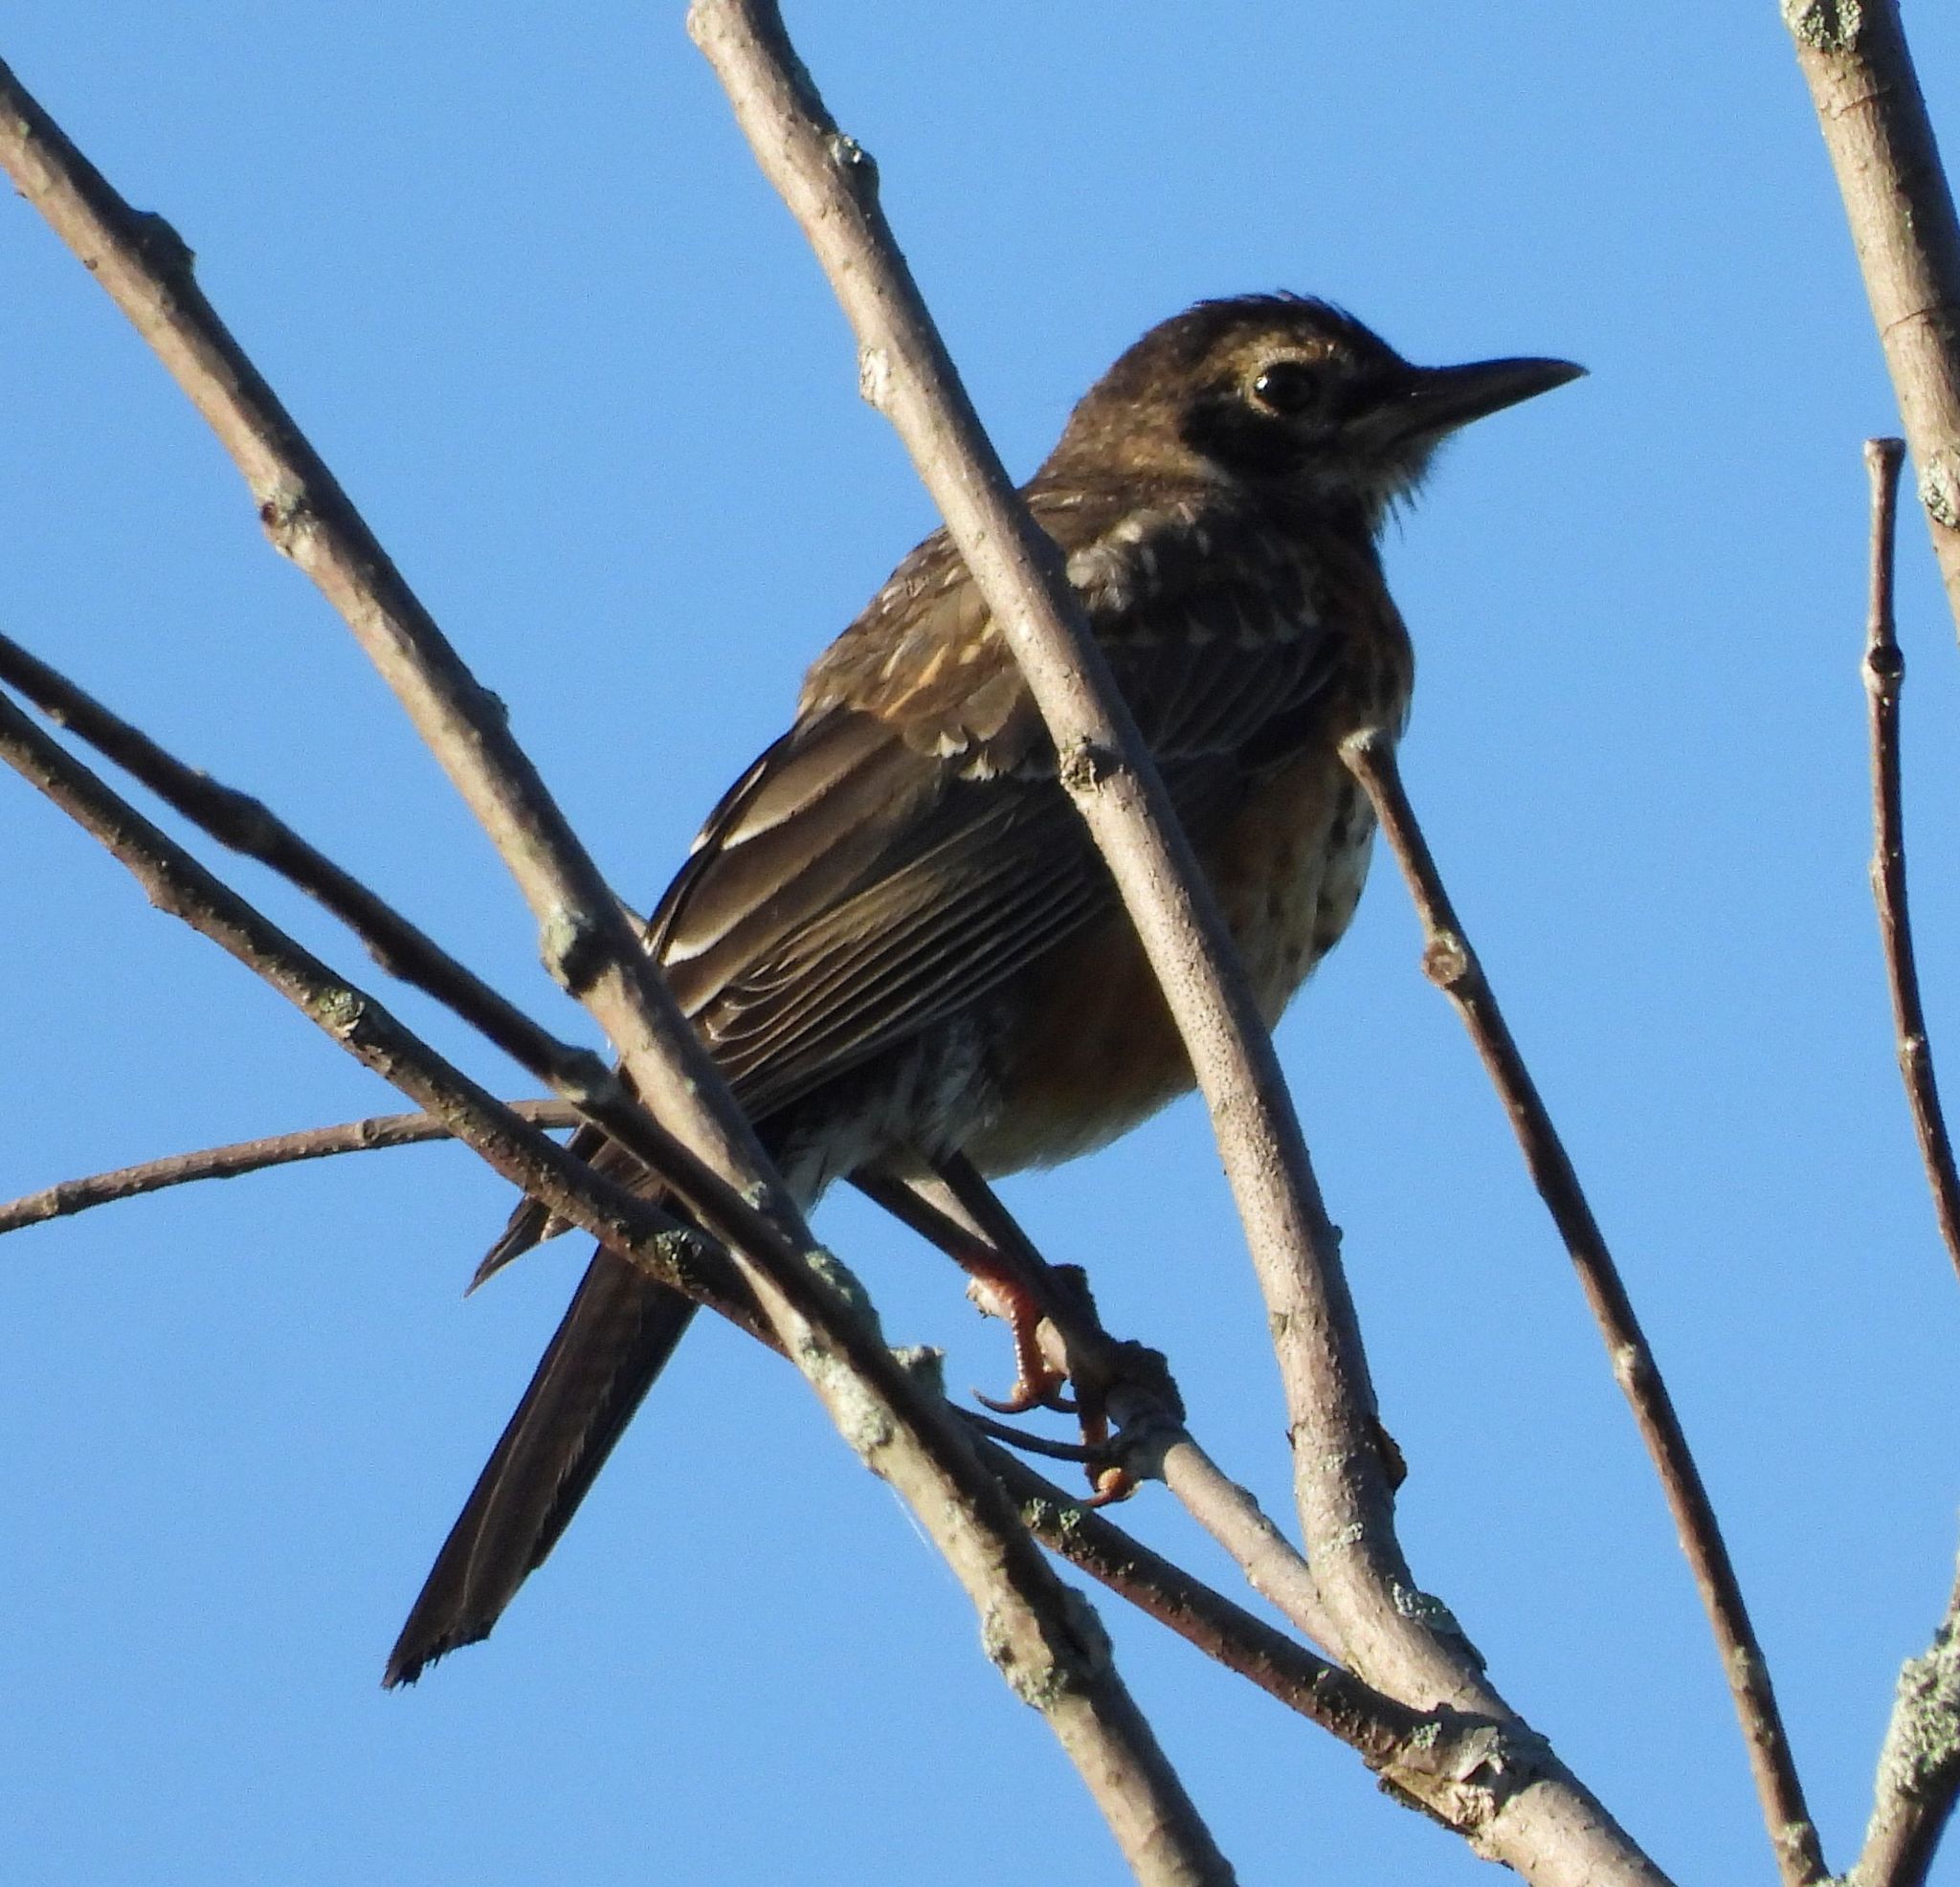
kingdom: Animalia
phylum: Chordata
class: Aves
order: Passeriformes
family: Turdidae
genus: Turdus
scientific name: Turdus migratorius
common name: American robin
